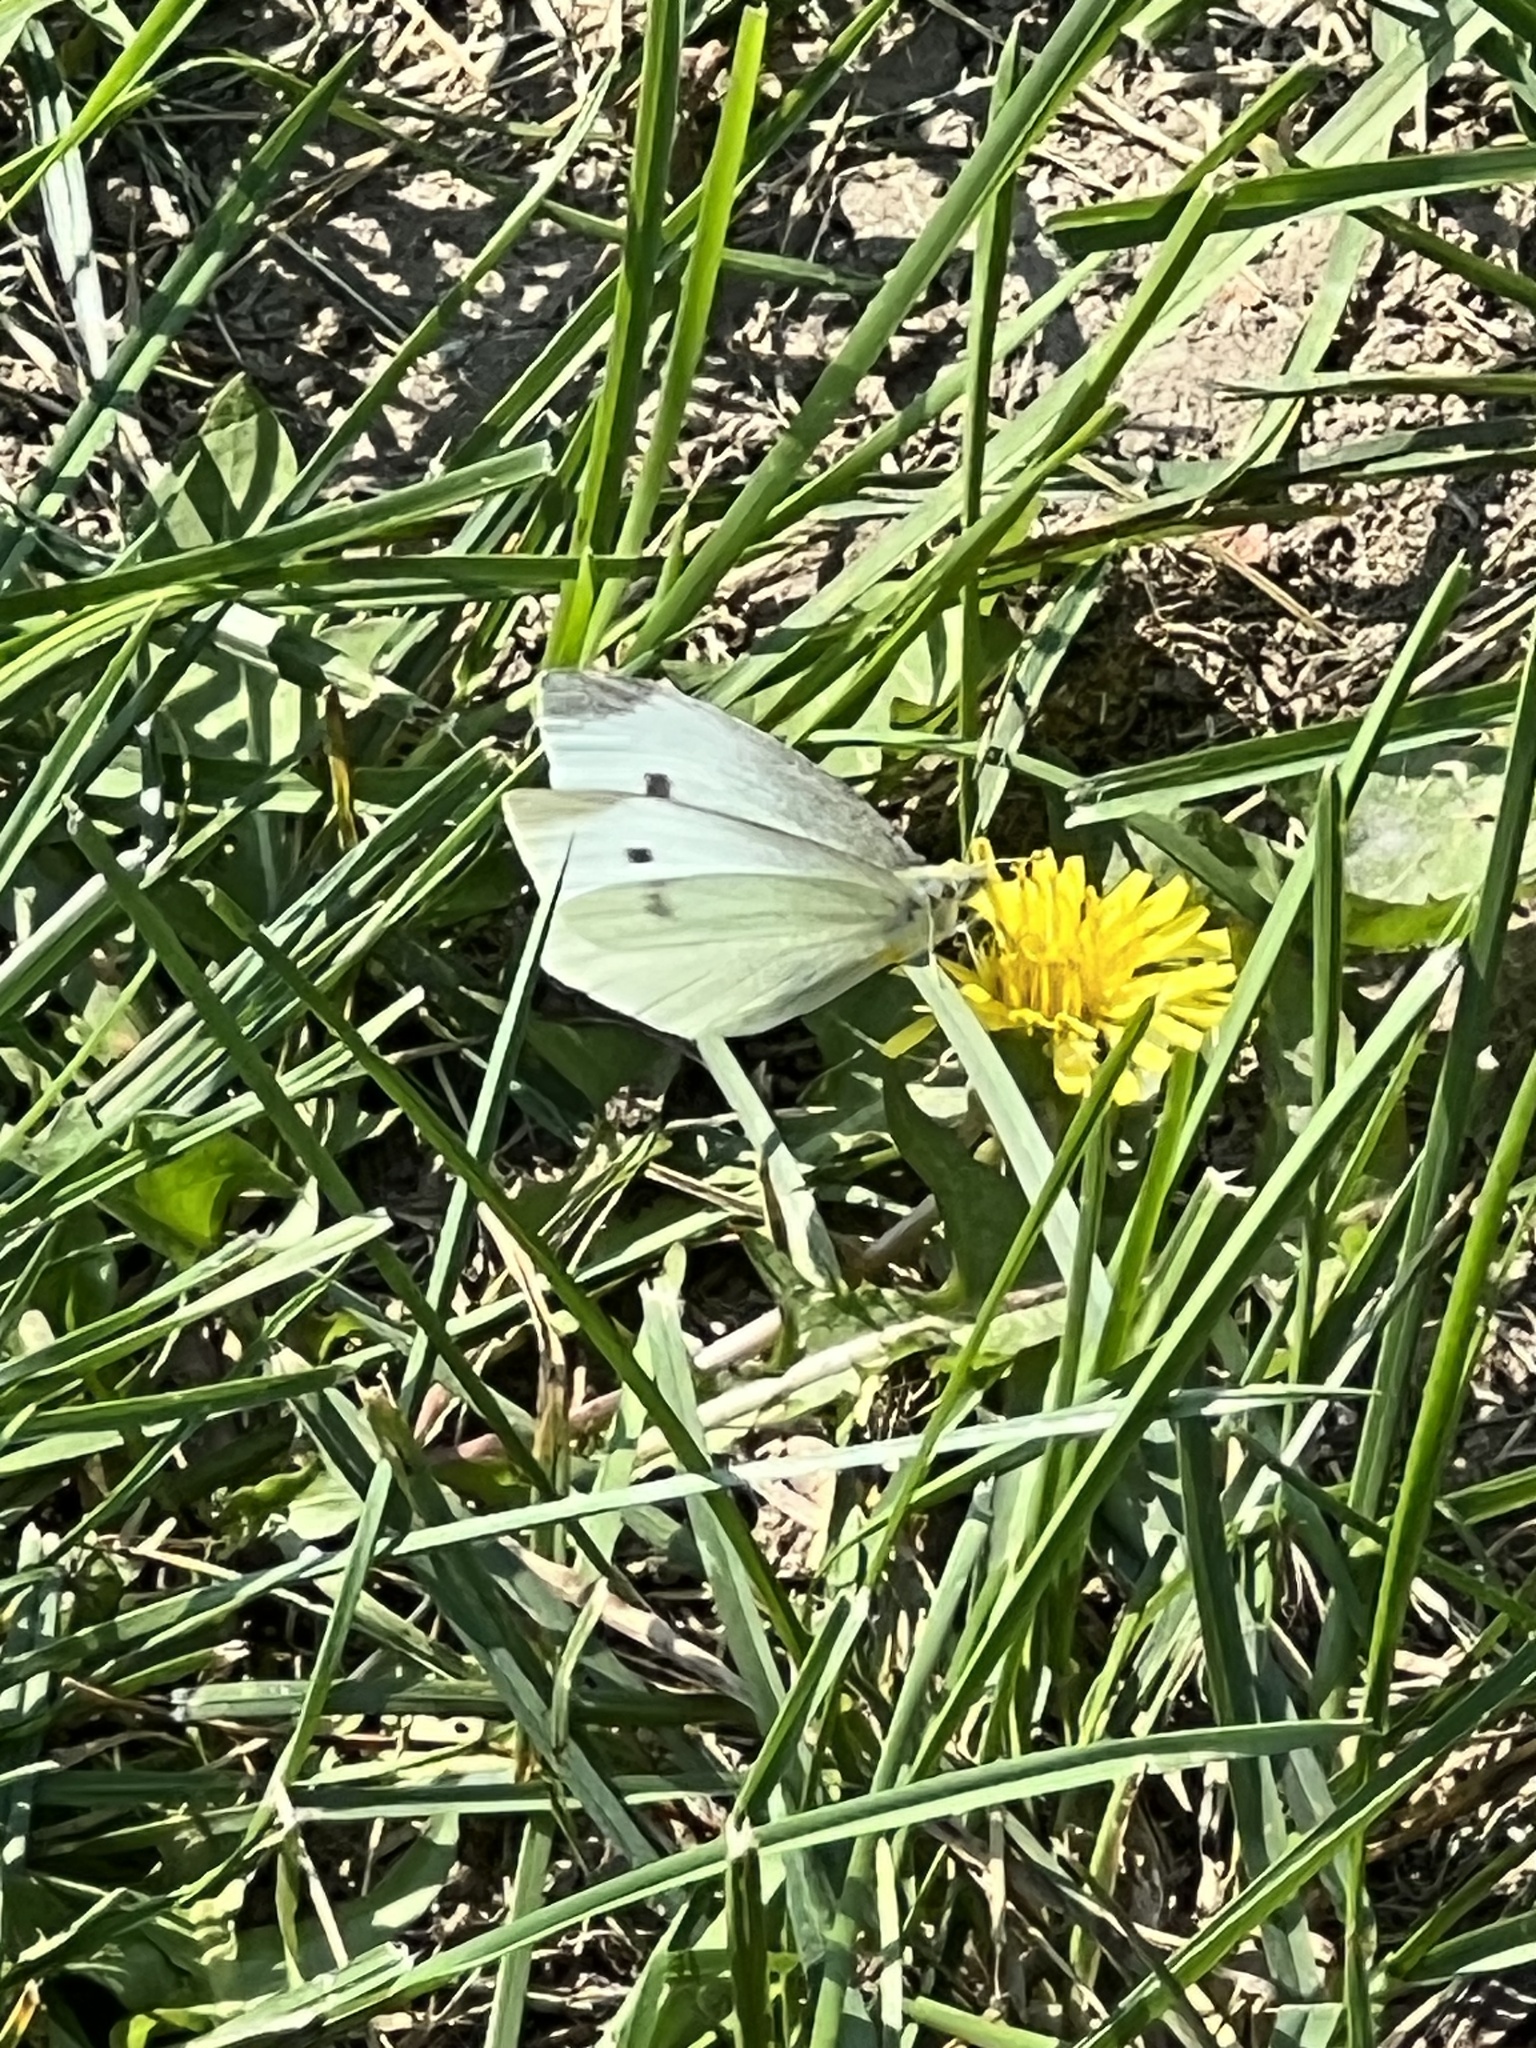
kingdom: Animalia
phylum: Arthropoda
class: Insecta
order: Lepidoptera
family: Pieridae
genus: Pieris
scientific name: Pieris rapae
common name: Small white
